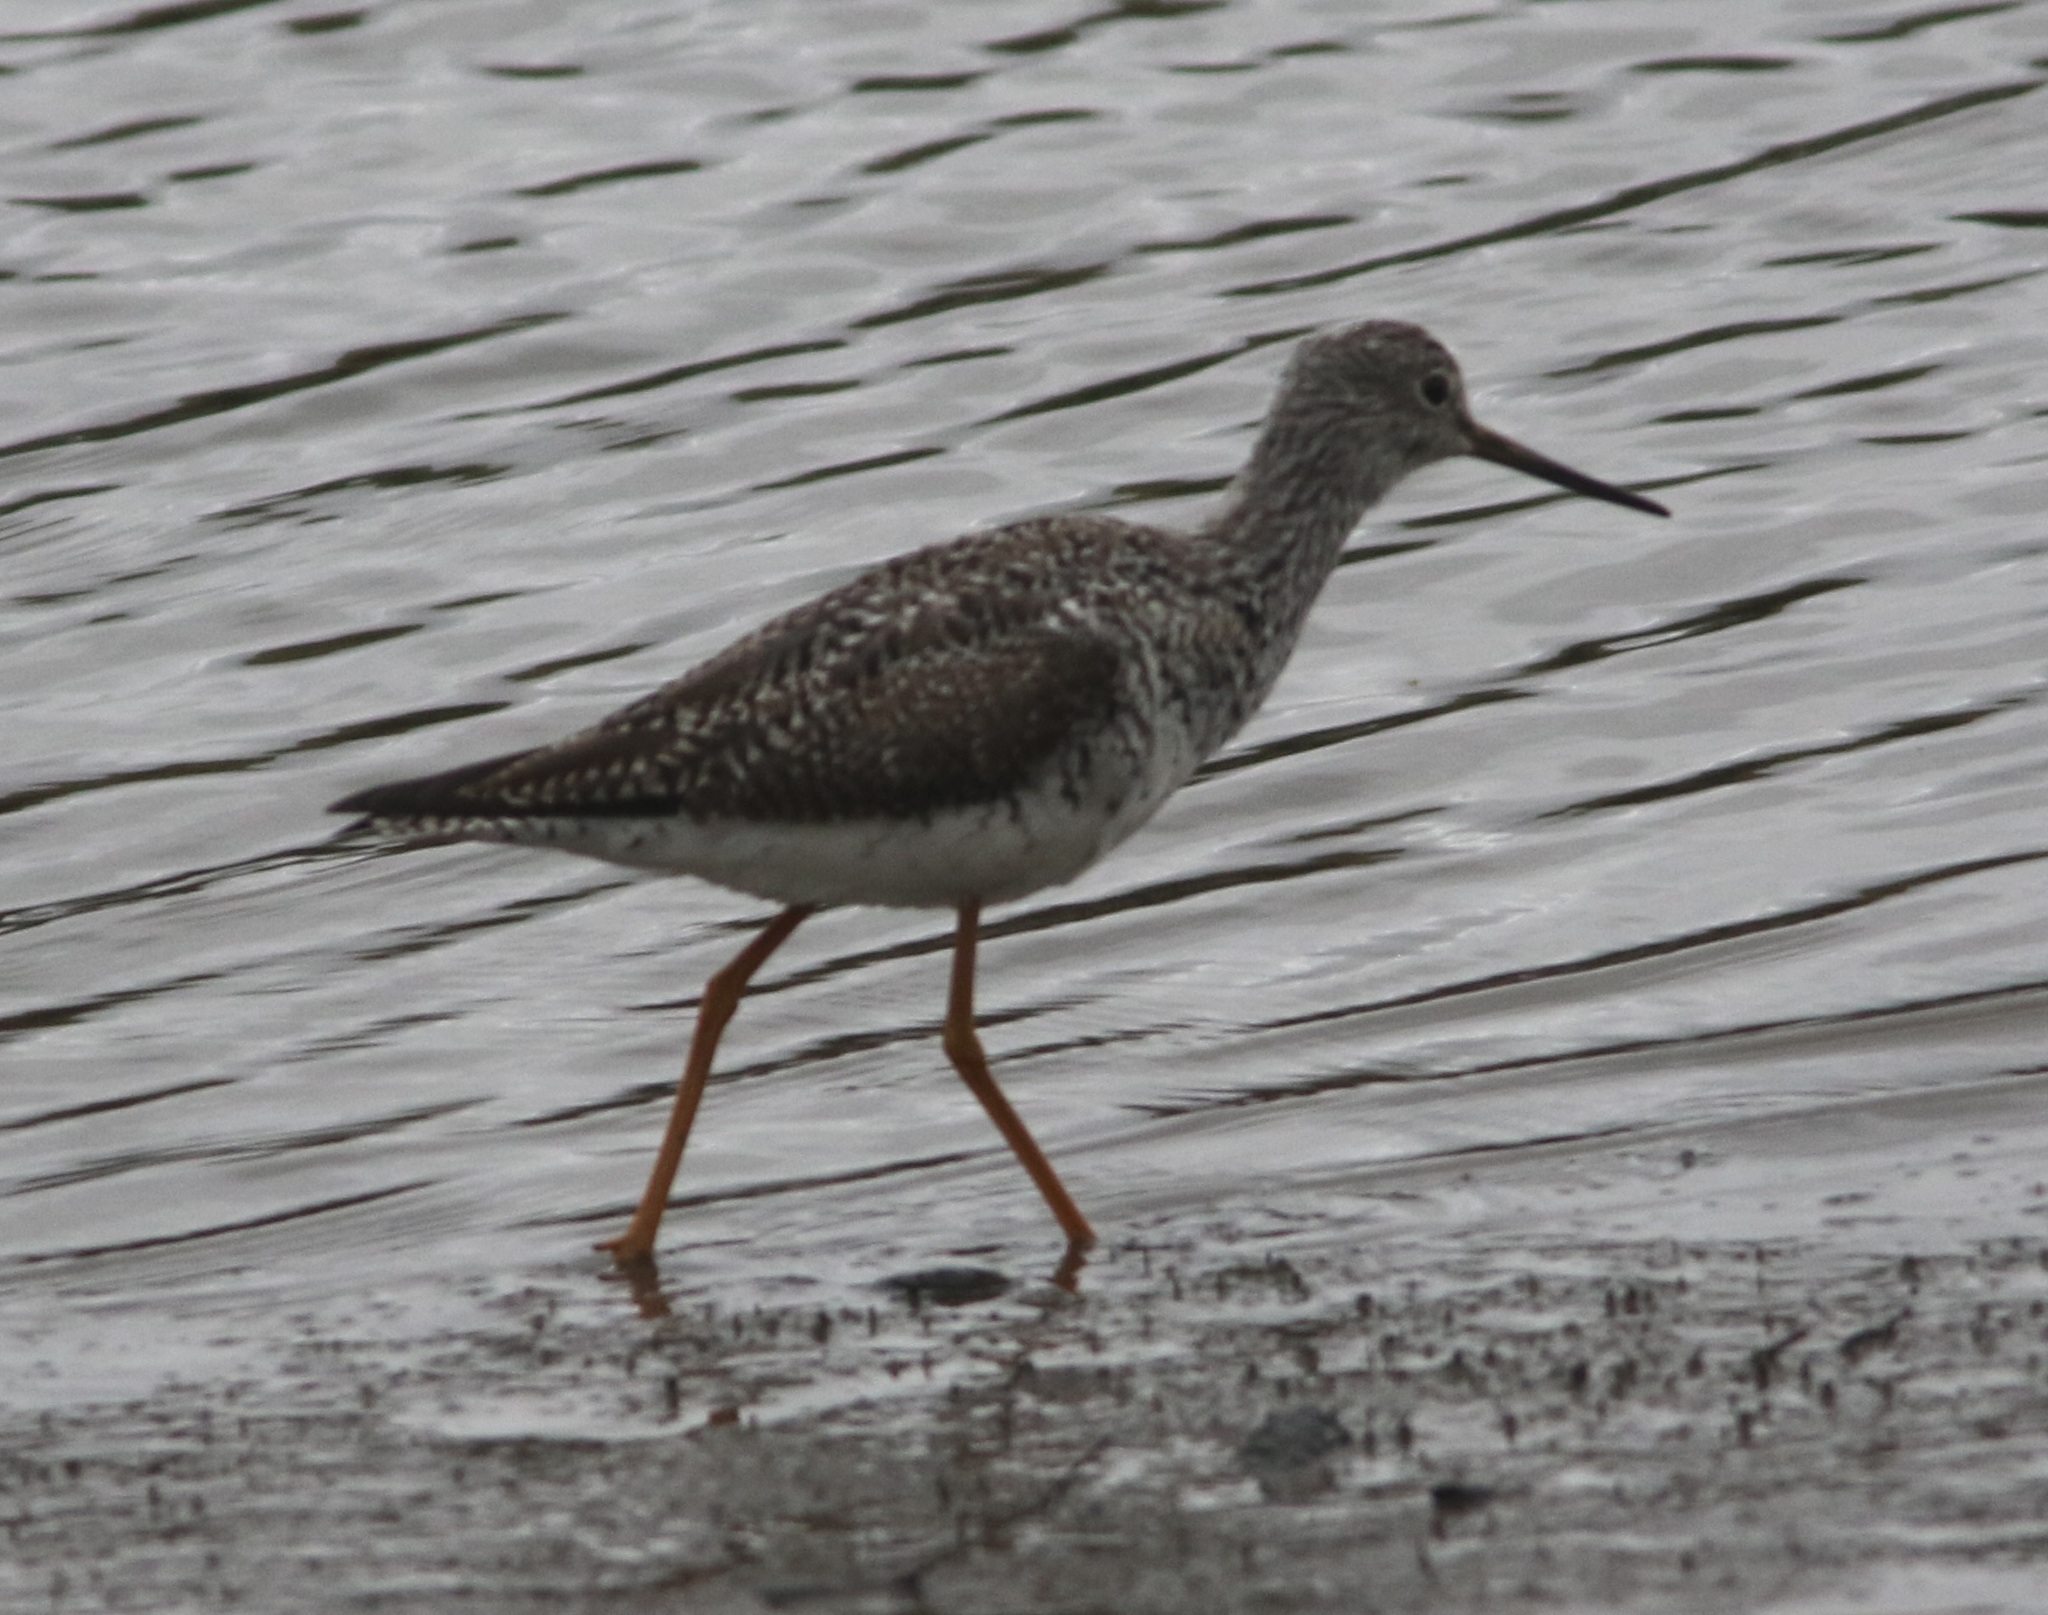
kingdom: Animalia
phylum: Chordata
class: Aves
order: Charadriiformes
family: Scolopacidae
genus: Tringa
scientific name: Tringa melanoleuca
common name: Greater yellowlegs
